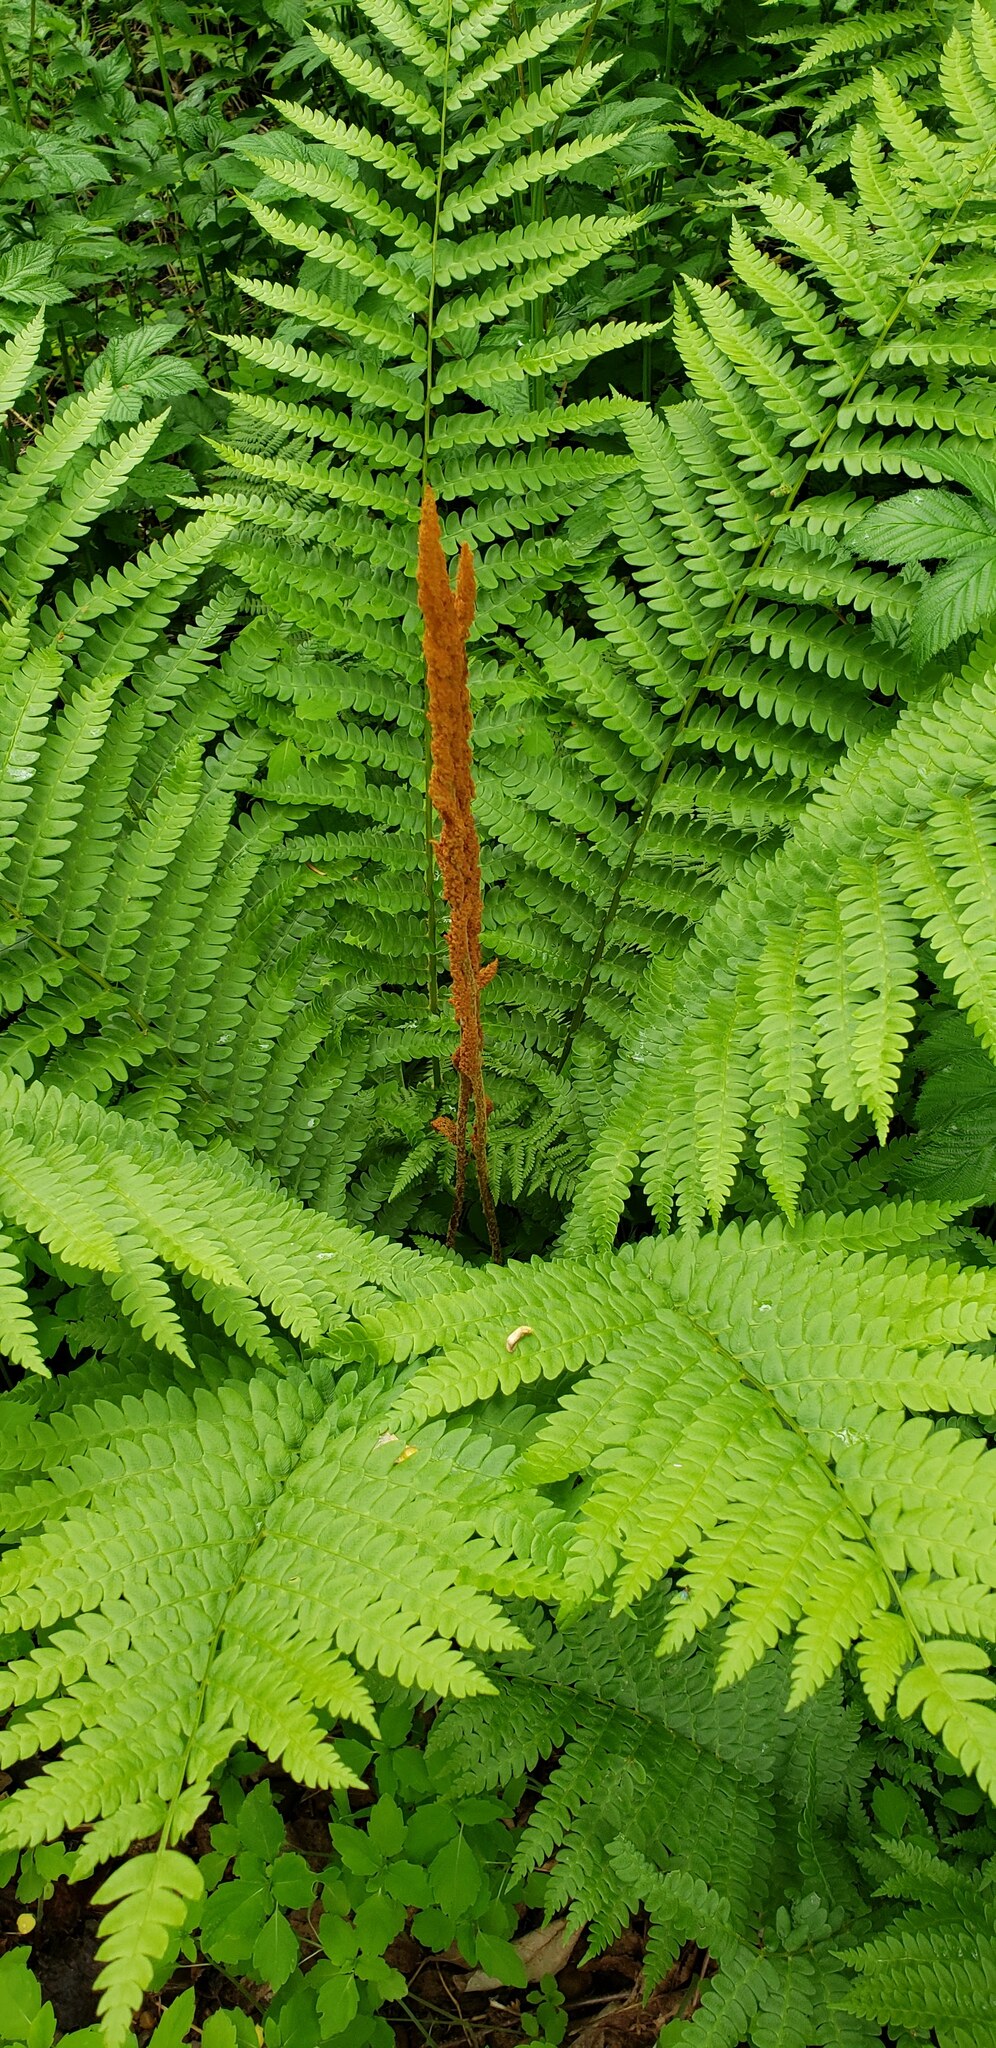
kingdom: Plantae
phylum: Tracheophyta
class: Polypodiopsida
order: Osmundales
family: Osmundaceae
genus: Osmundastrum
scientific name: Osmundastrum cinnamomeum
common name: Cinnamon fern
